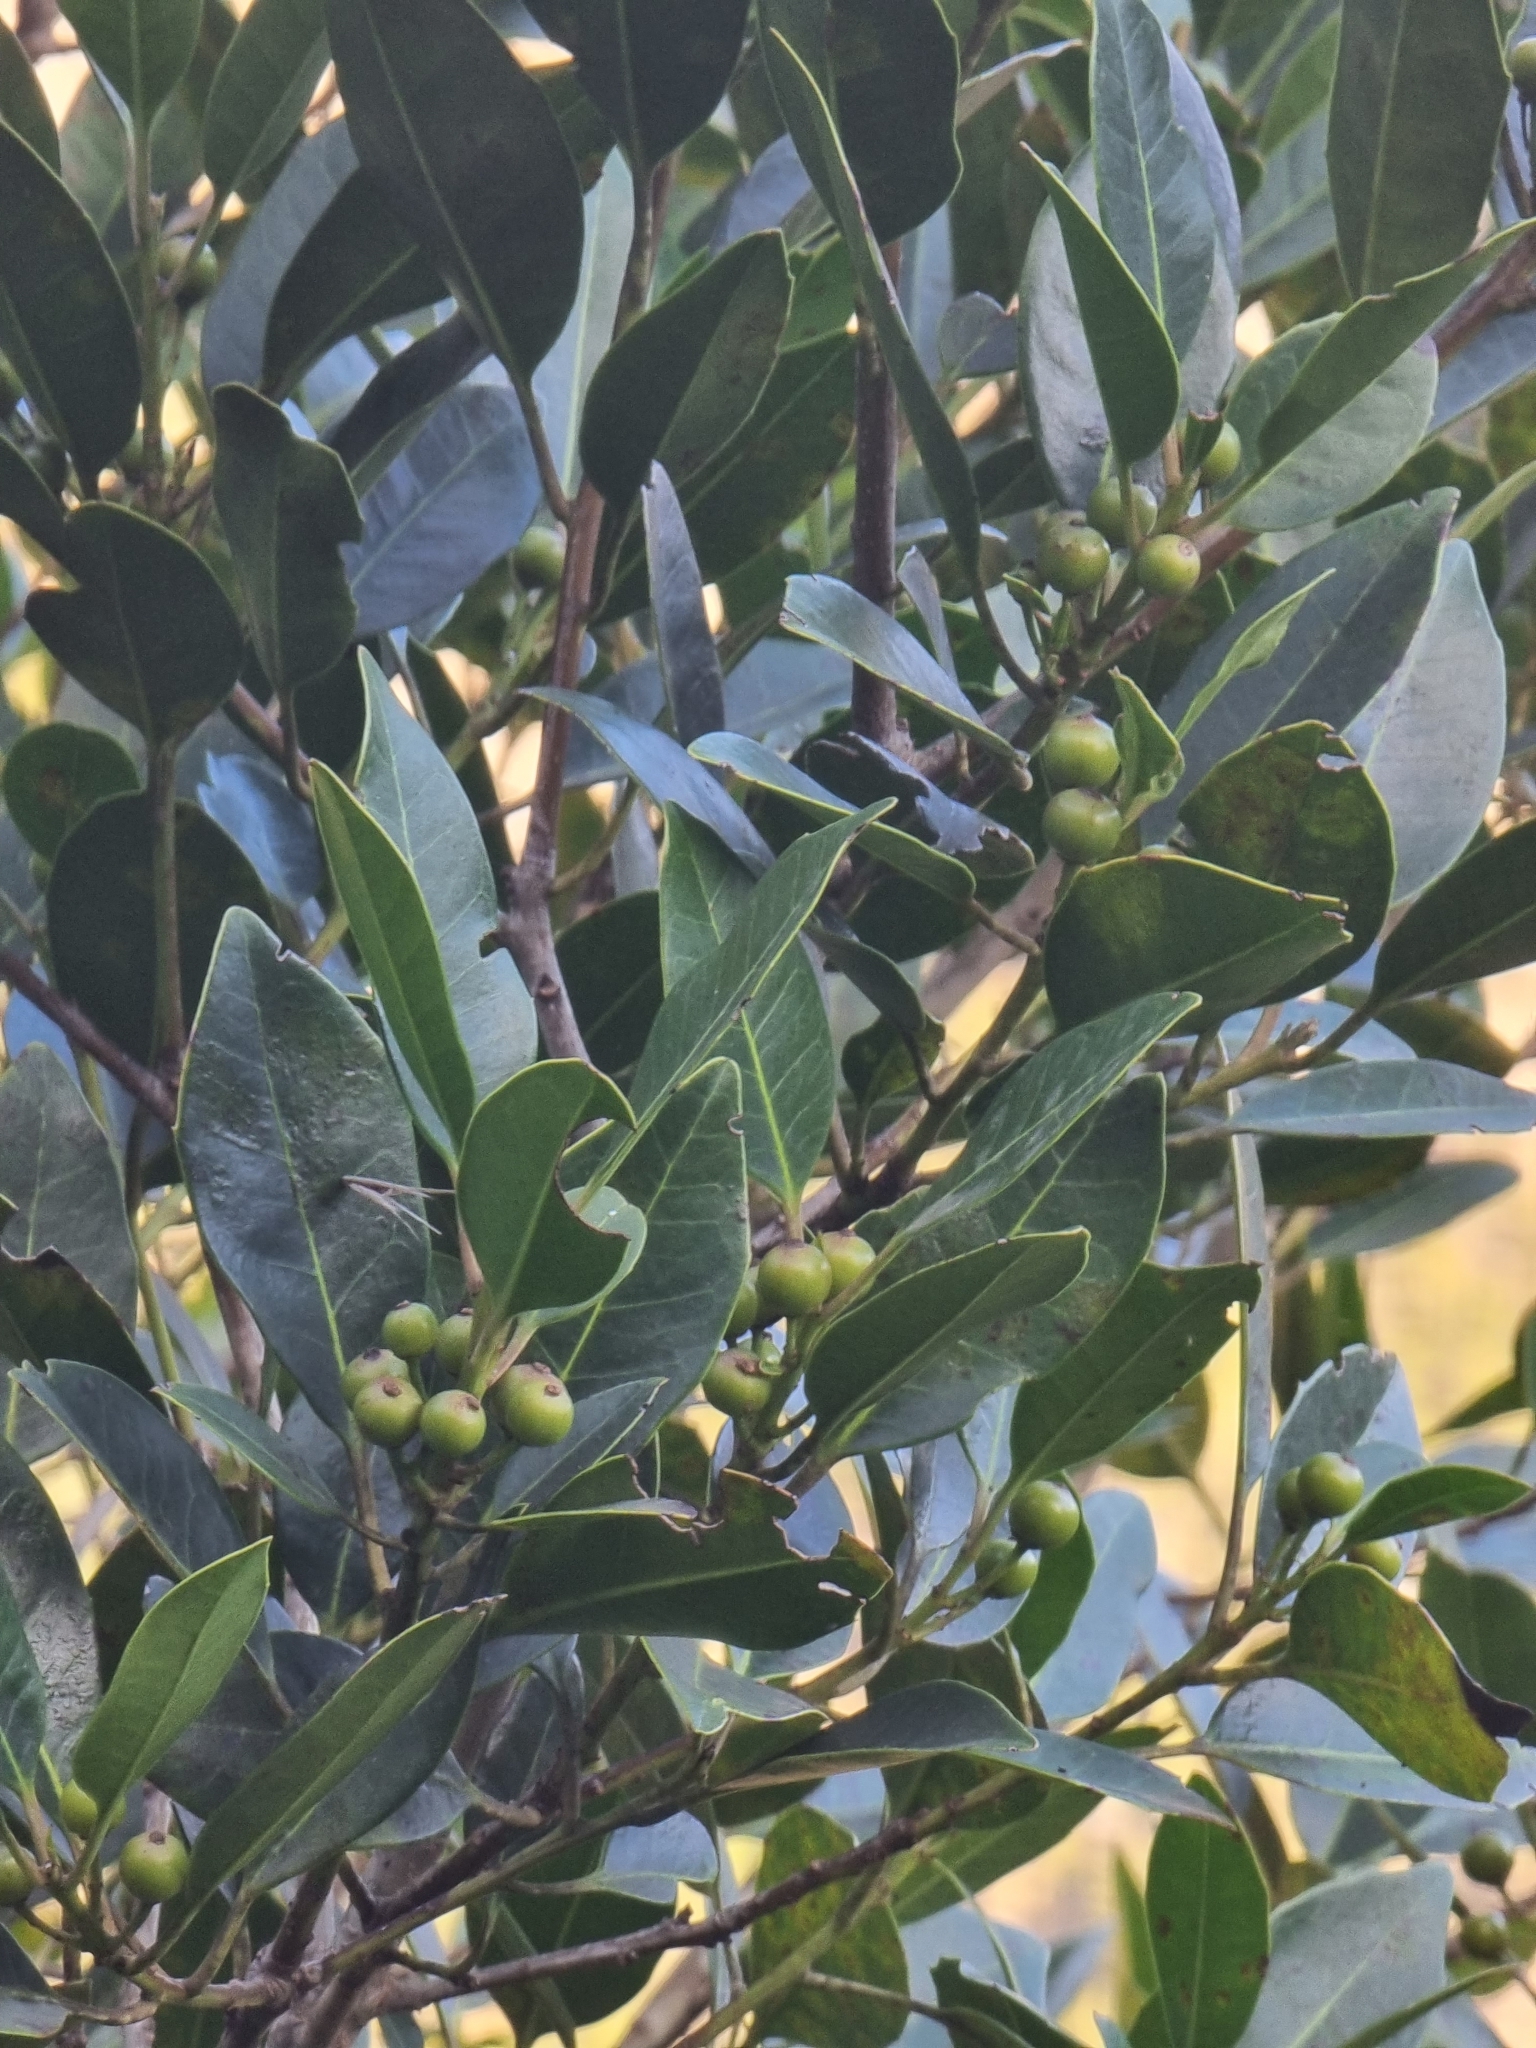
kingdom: Plantae
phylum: Tracheophyta
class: Magnoliopsida
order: Aquifoliales
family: Aquifoliaceae
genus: Ilex
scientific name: Ilex canariensis
